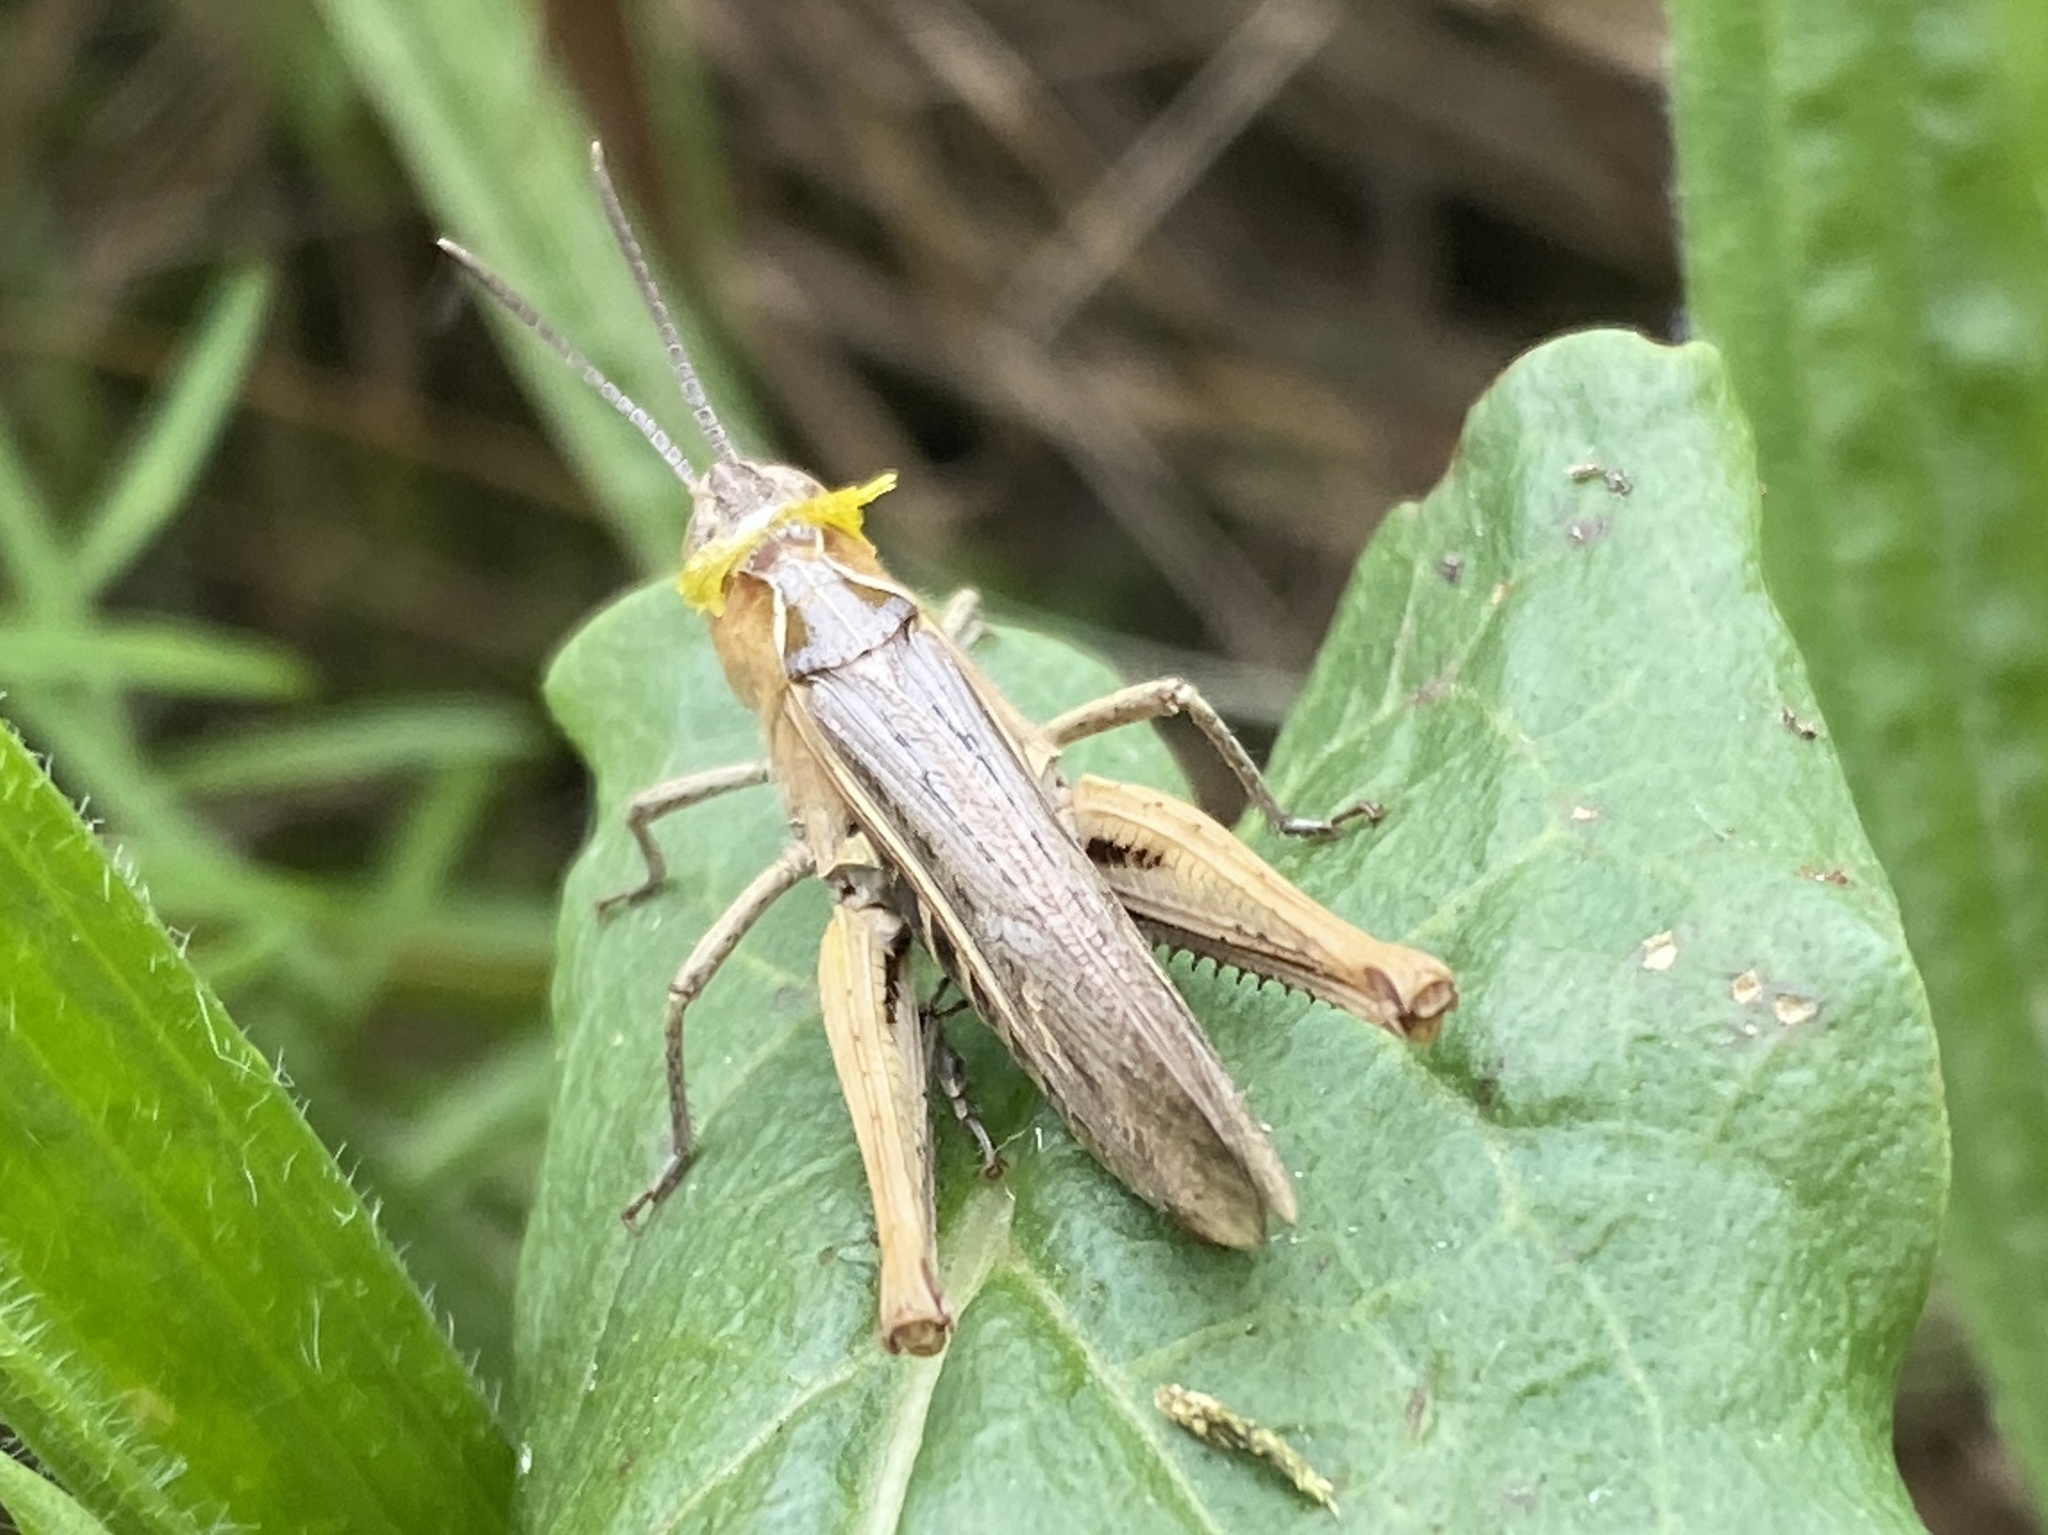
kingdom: Animalia
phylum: Arthropoda
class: Insecta
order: Orthoptera
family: Acrididae
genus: Chorthippus
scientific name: Chorthippus brunneus
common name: Field grasshopper
